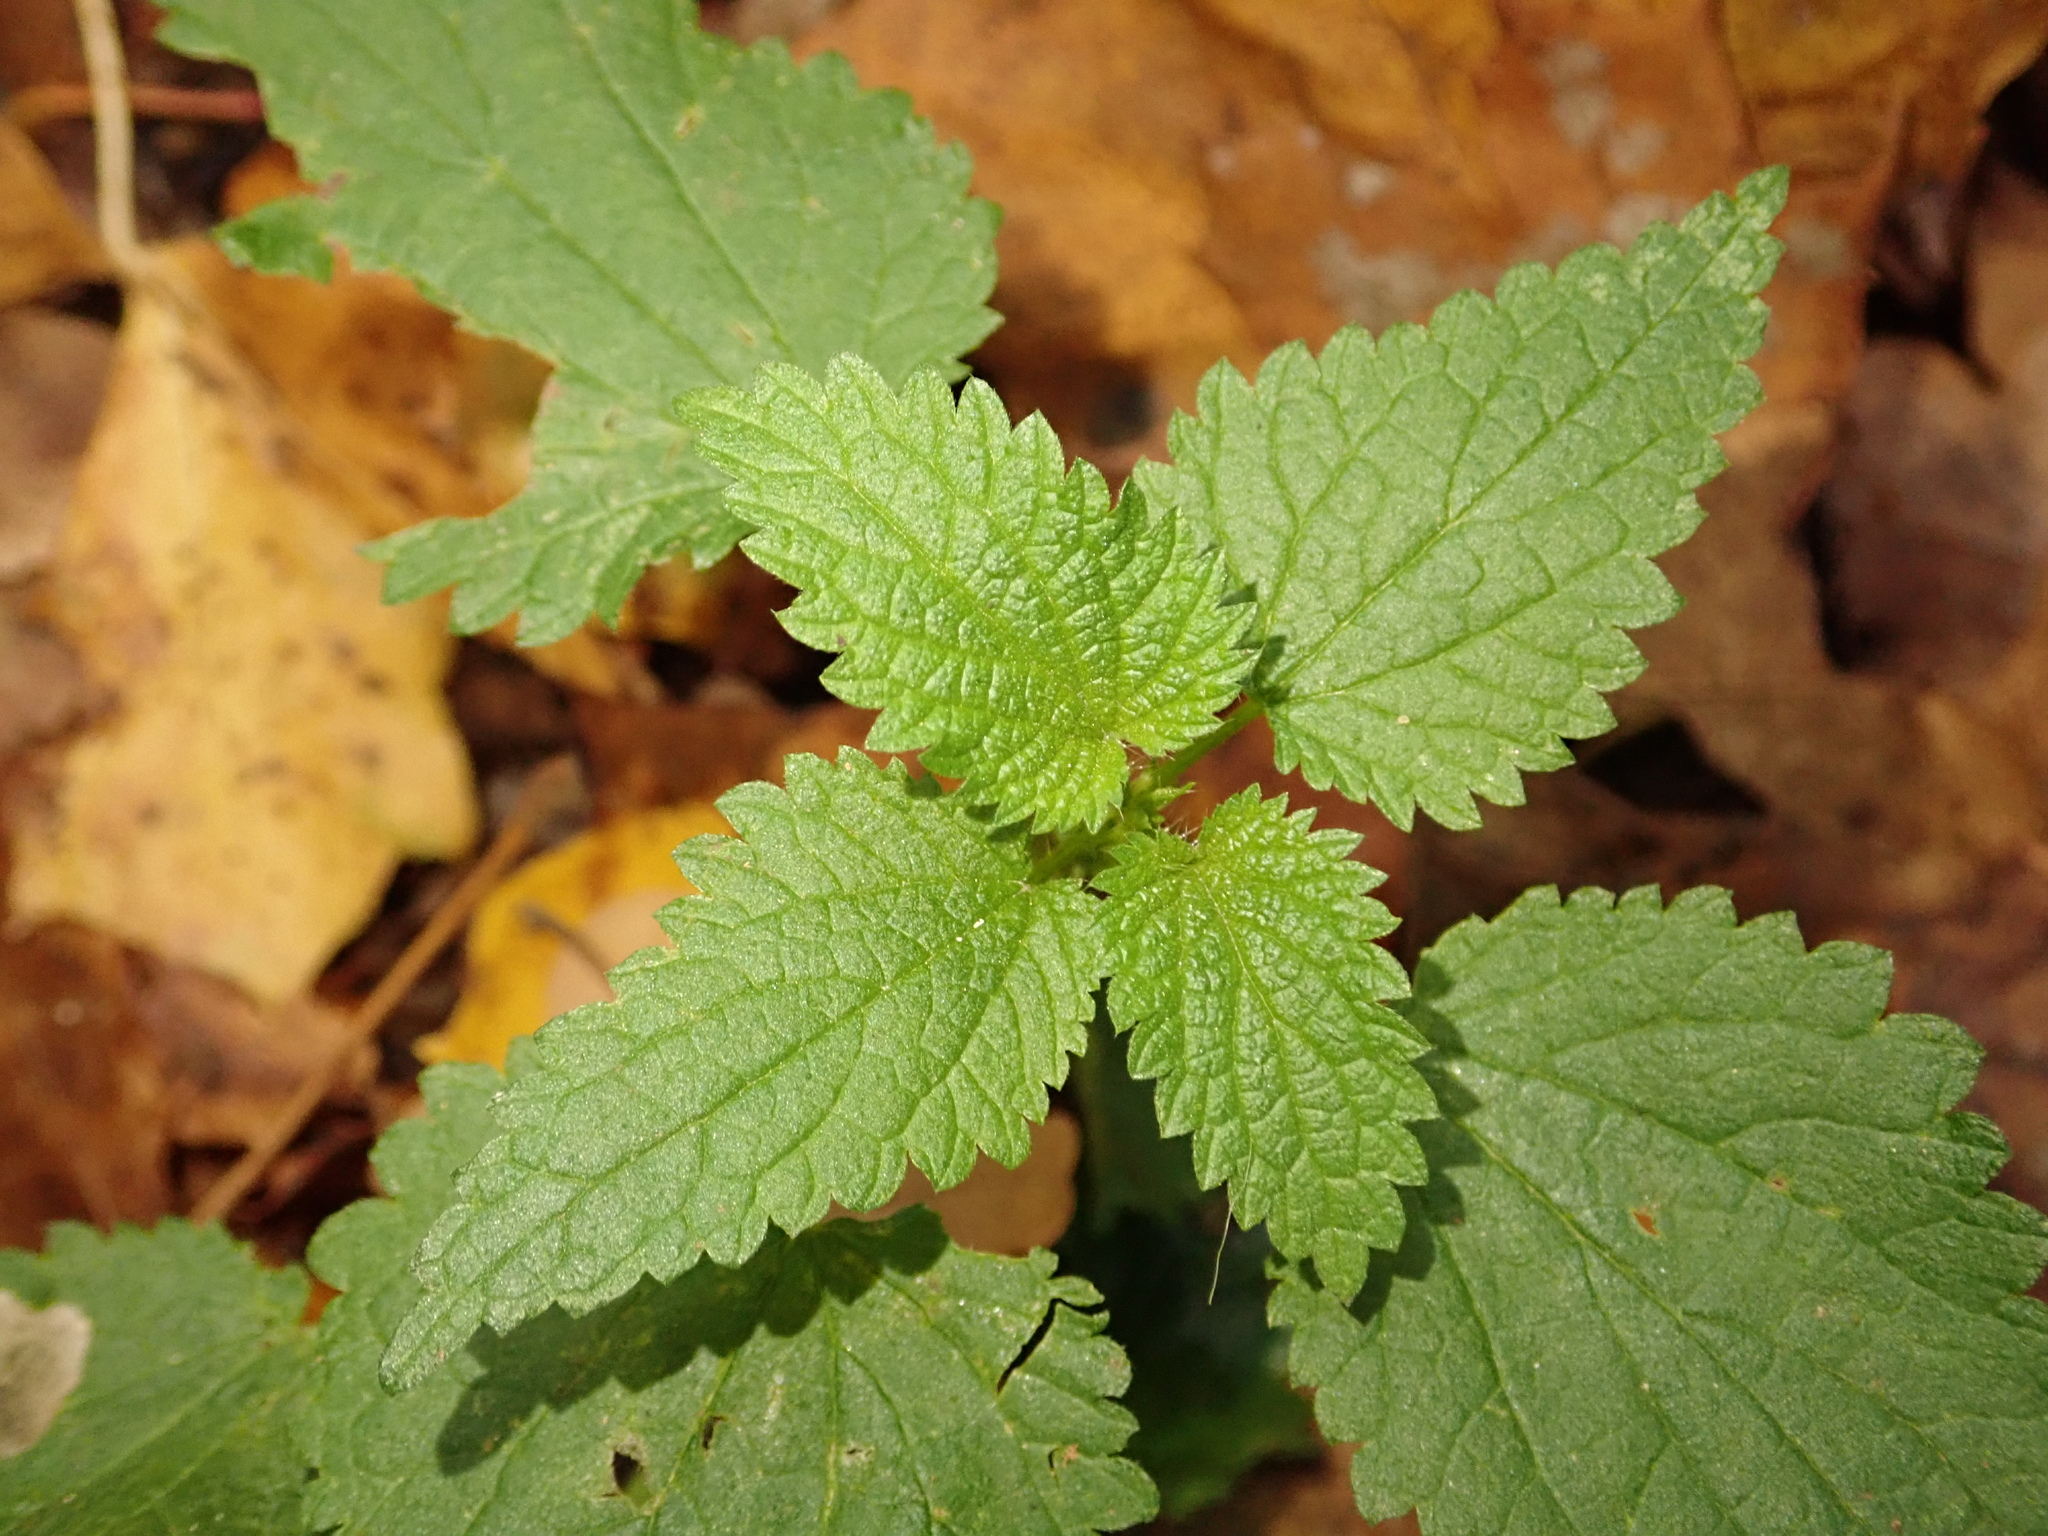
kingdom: Plantae
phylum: Tracheophyta
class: Magnoliopsida
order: Rosales
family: Urticaceae
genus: Urtica
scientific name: Urtica dioica
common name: Common nettle
